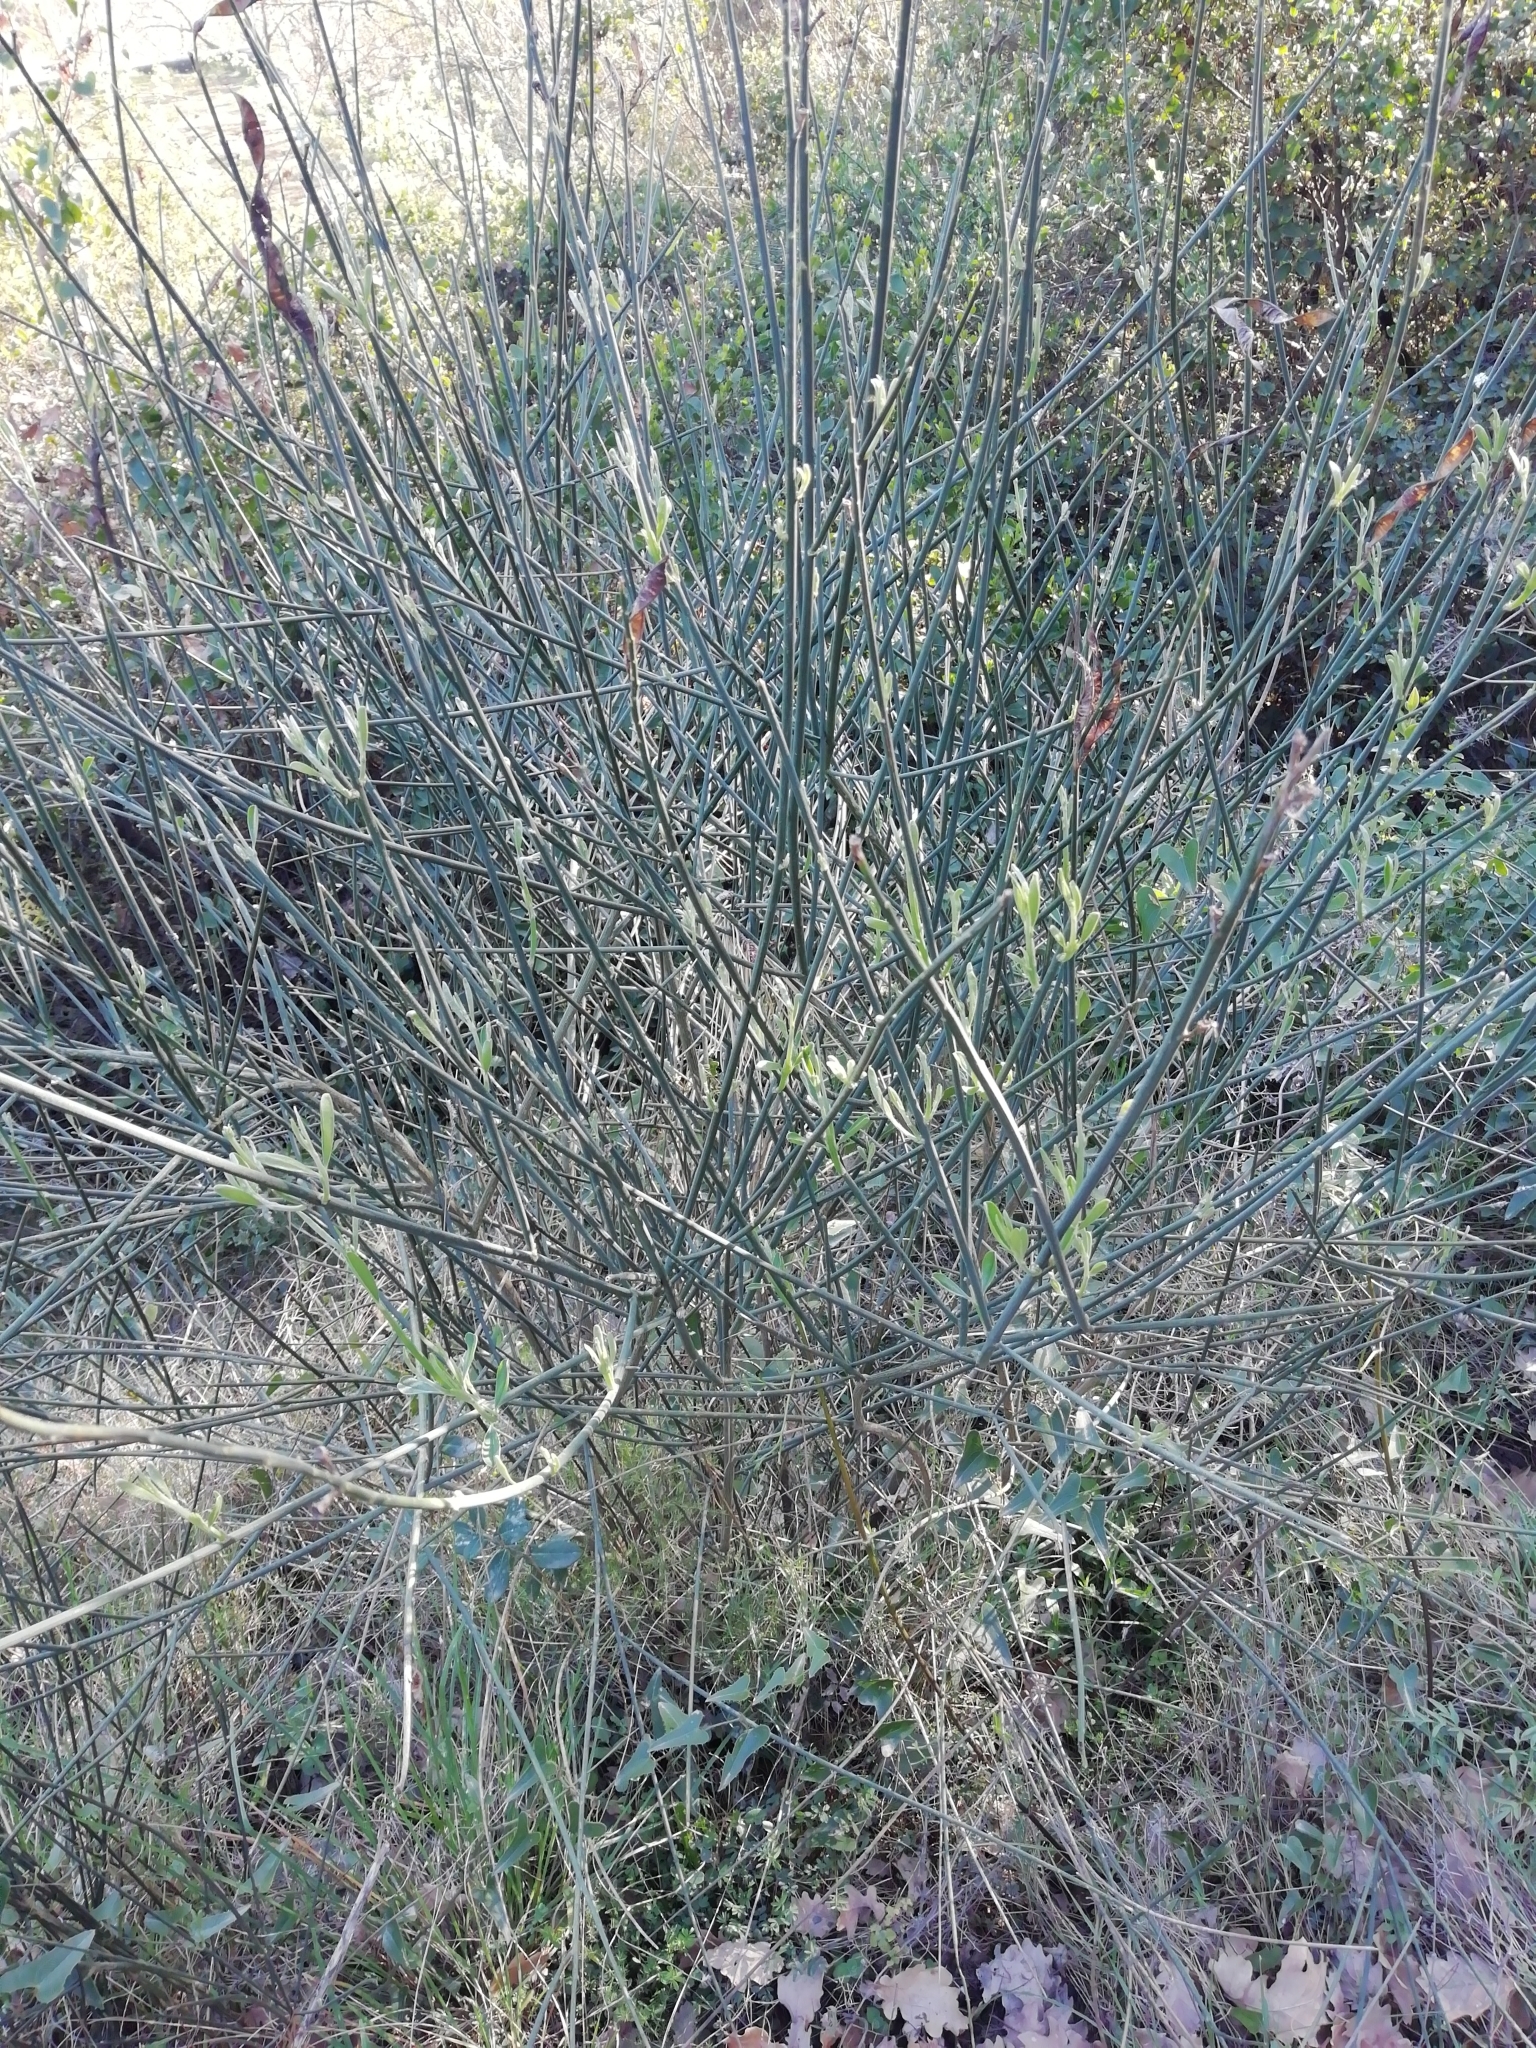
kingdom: Plantae
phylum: Tracheophyta
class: Magnoliopsida
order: Fabales
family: Fabaceae
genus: Spartium
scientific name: Spartium junceum
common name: Spanish broom
